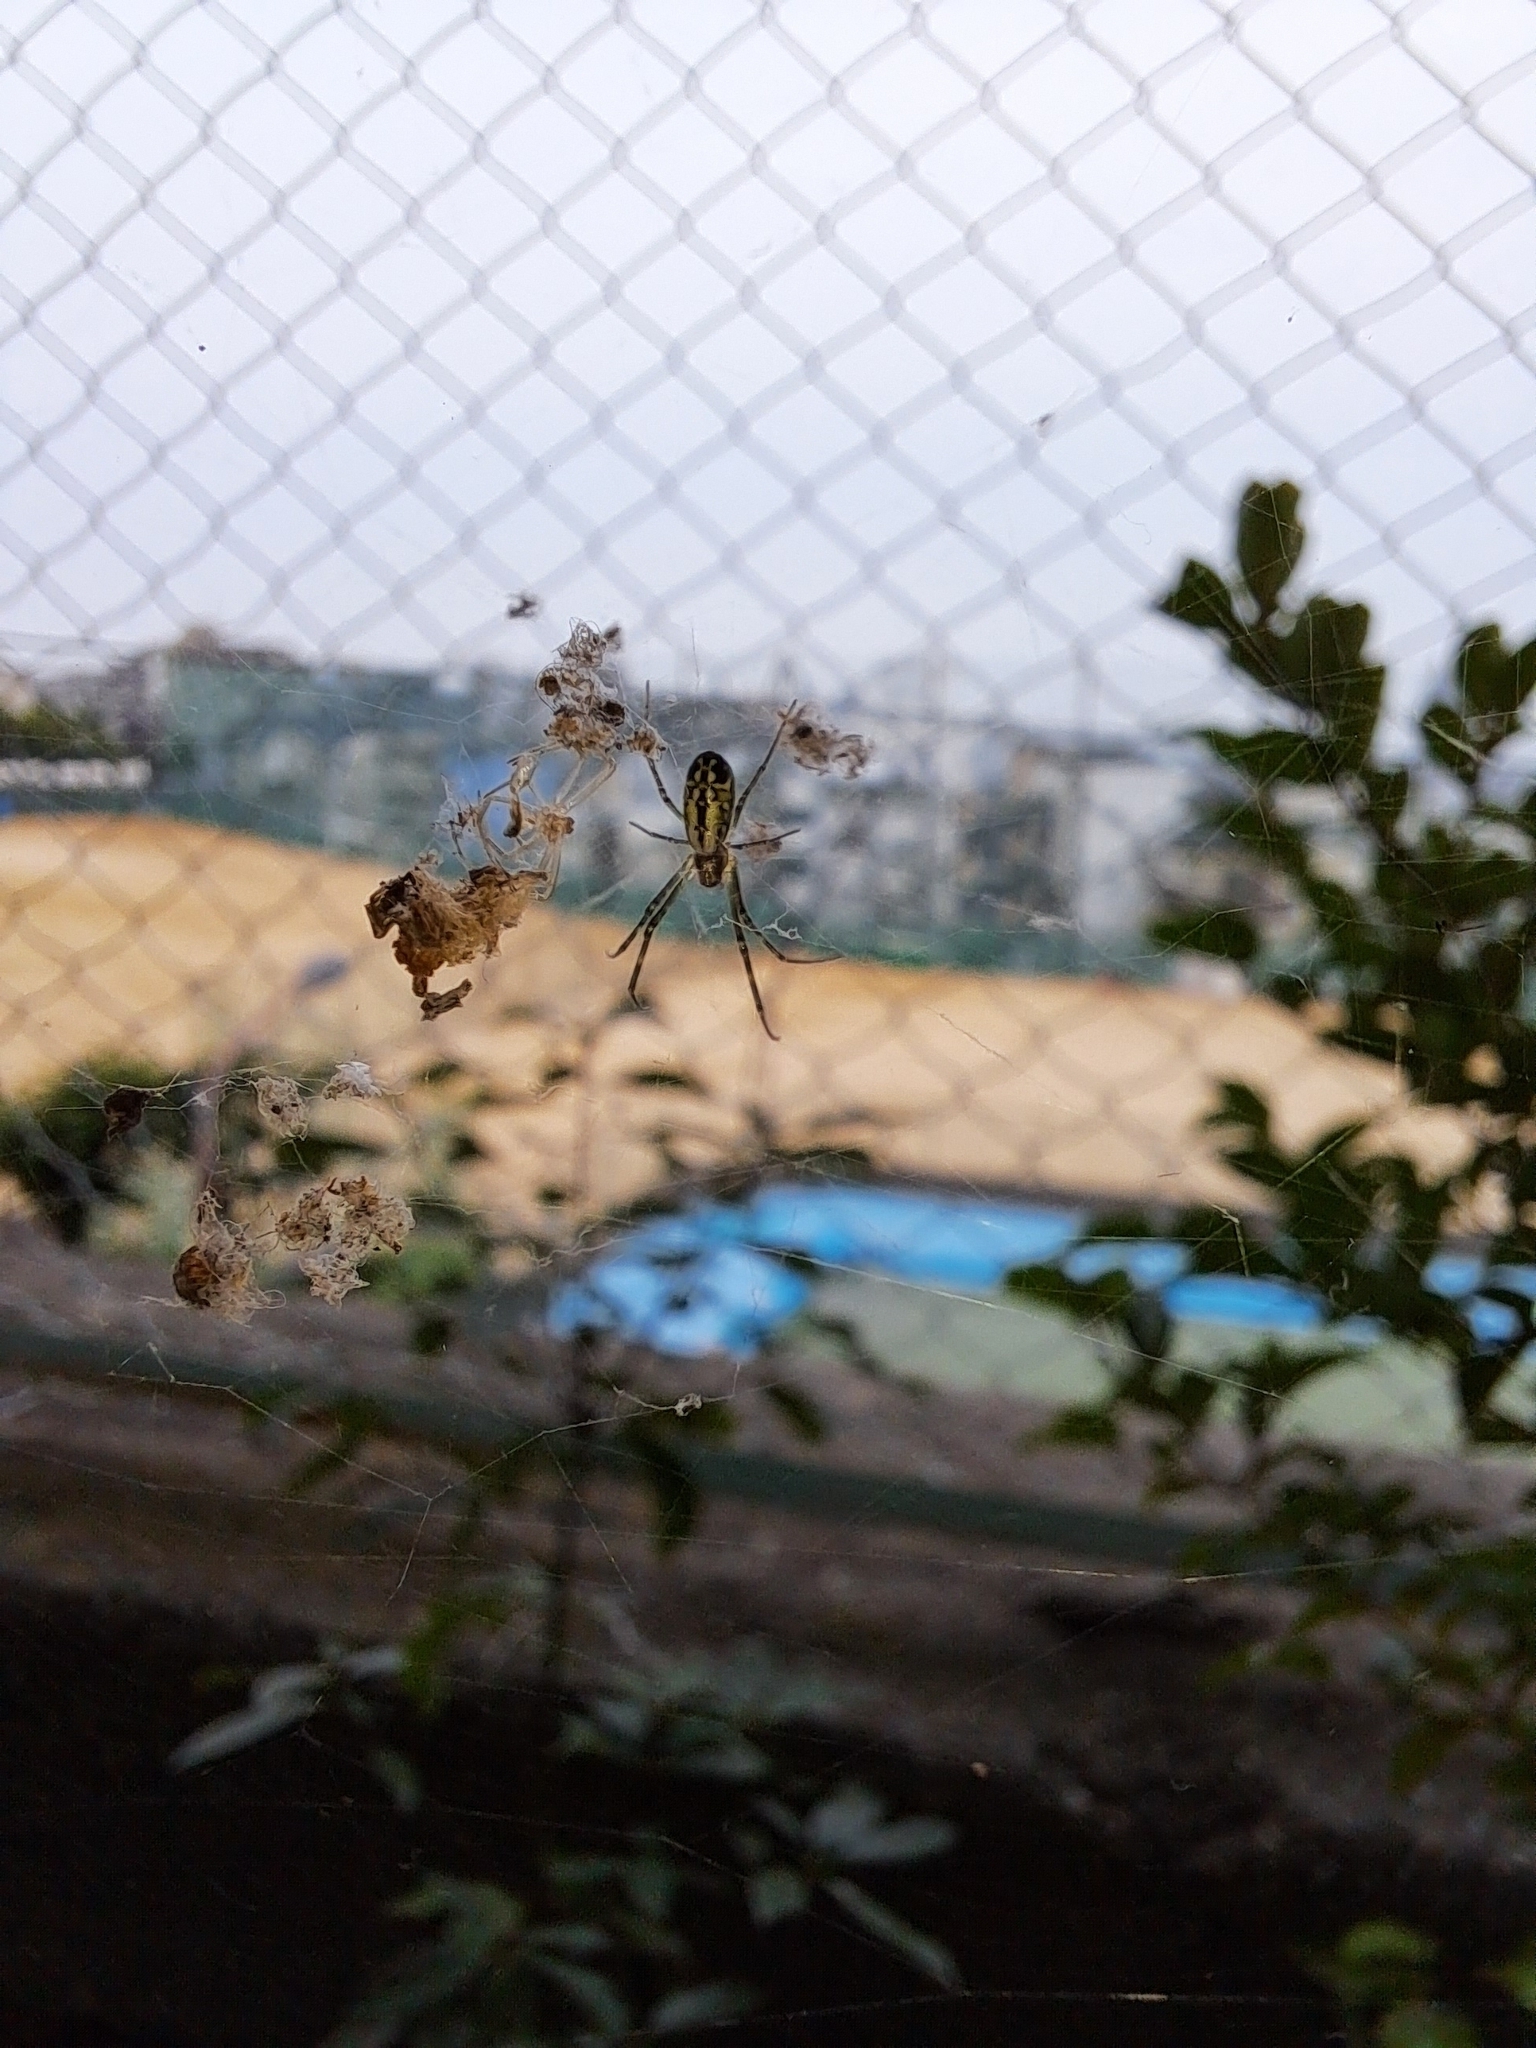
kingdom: Animalia
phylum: Arthropoda
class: Arachnida
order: Araneae
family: Araneidae
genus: Trichonephila
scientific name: Trichonephila clavata
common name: Jorō spider
